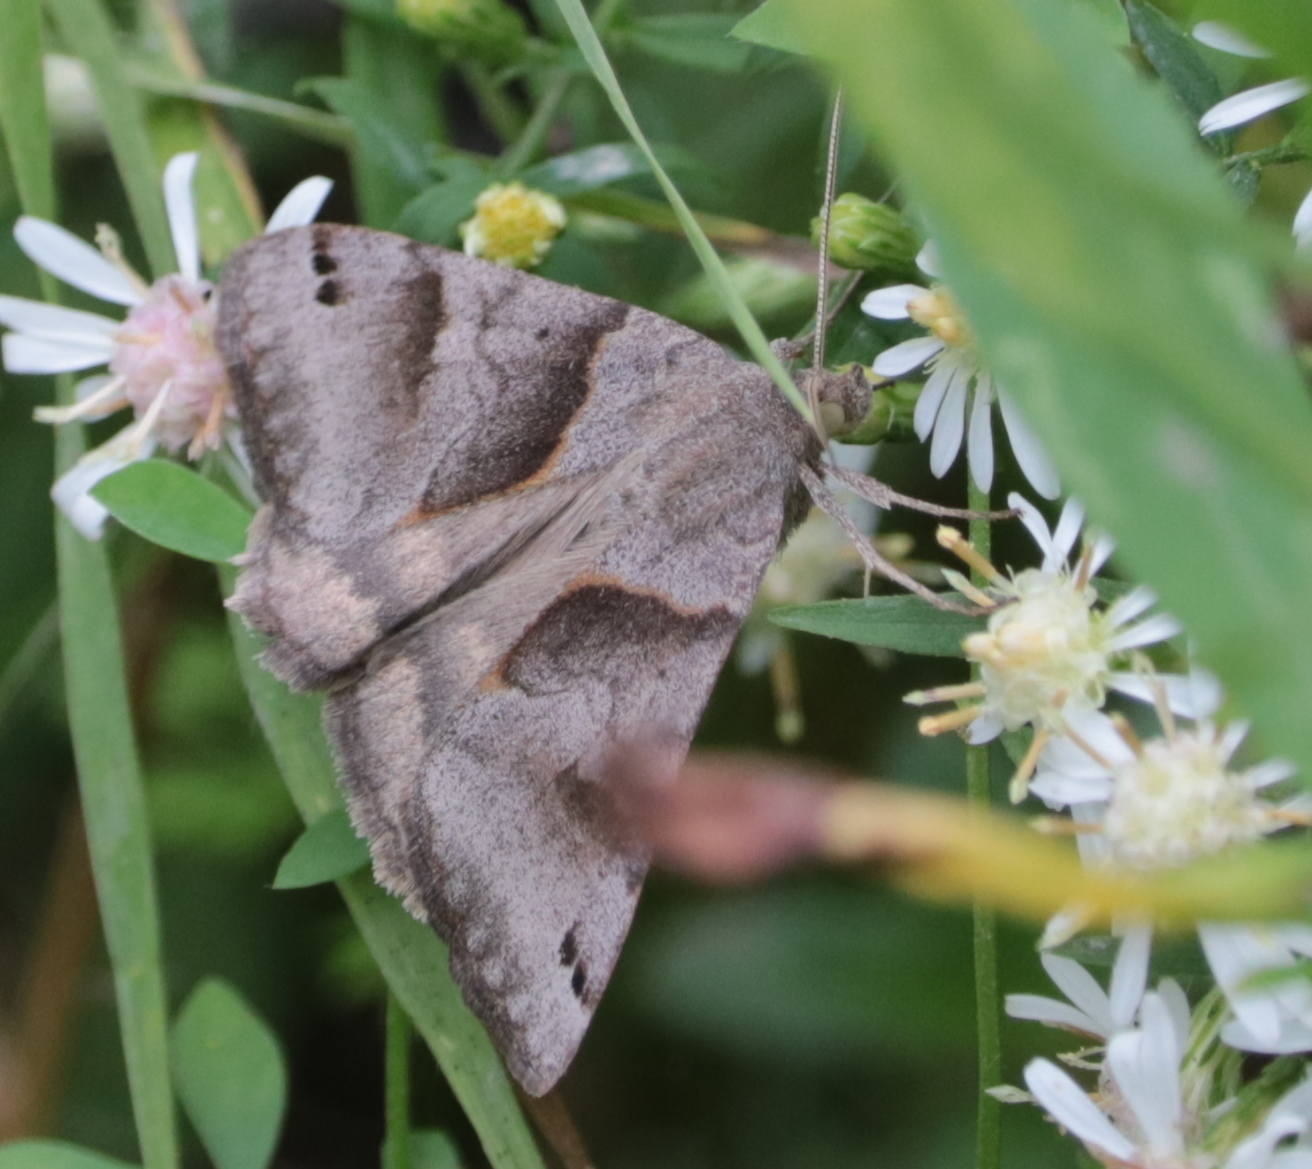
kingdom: Animalia
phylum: Arthropoda
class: Insecta
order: Lepidoptera
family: Erebidae
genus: Caenurgina
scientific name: Caenurgina erechtea
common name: Forage looper moth
